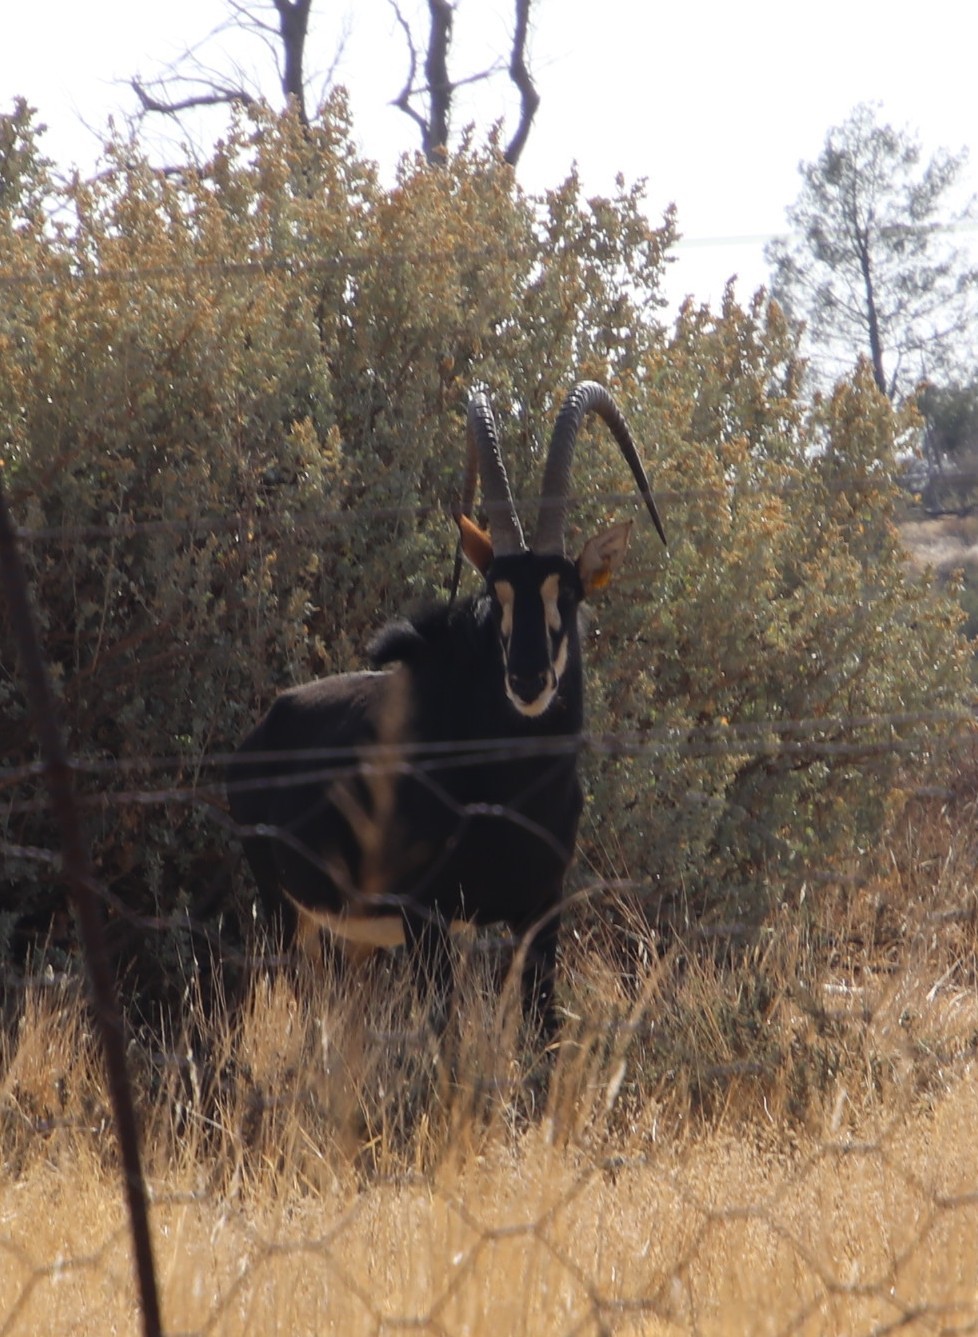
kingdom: Animalia
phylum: Chordata
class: Mammalia
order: Artiodactyla
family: Bovidae
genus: Hippotragus
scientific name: Hippotragus niger
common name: Sable antelope
